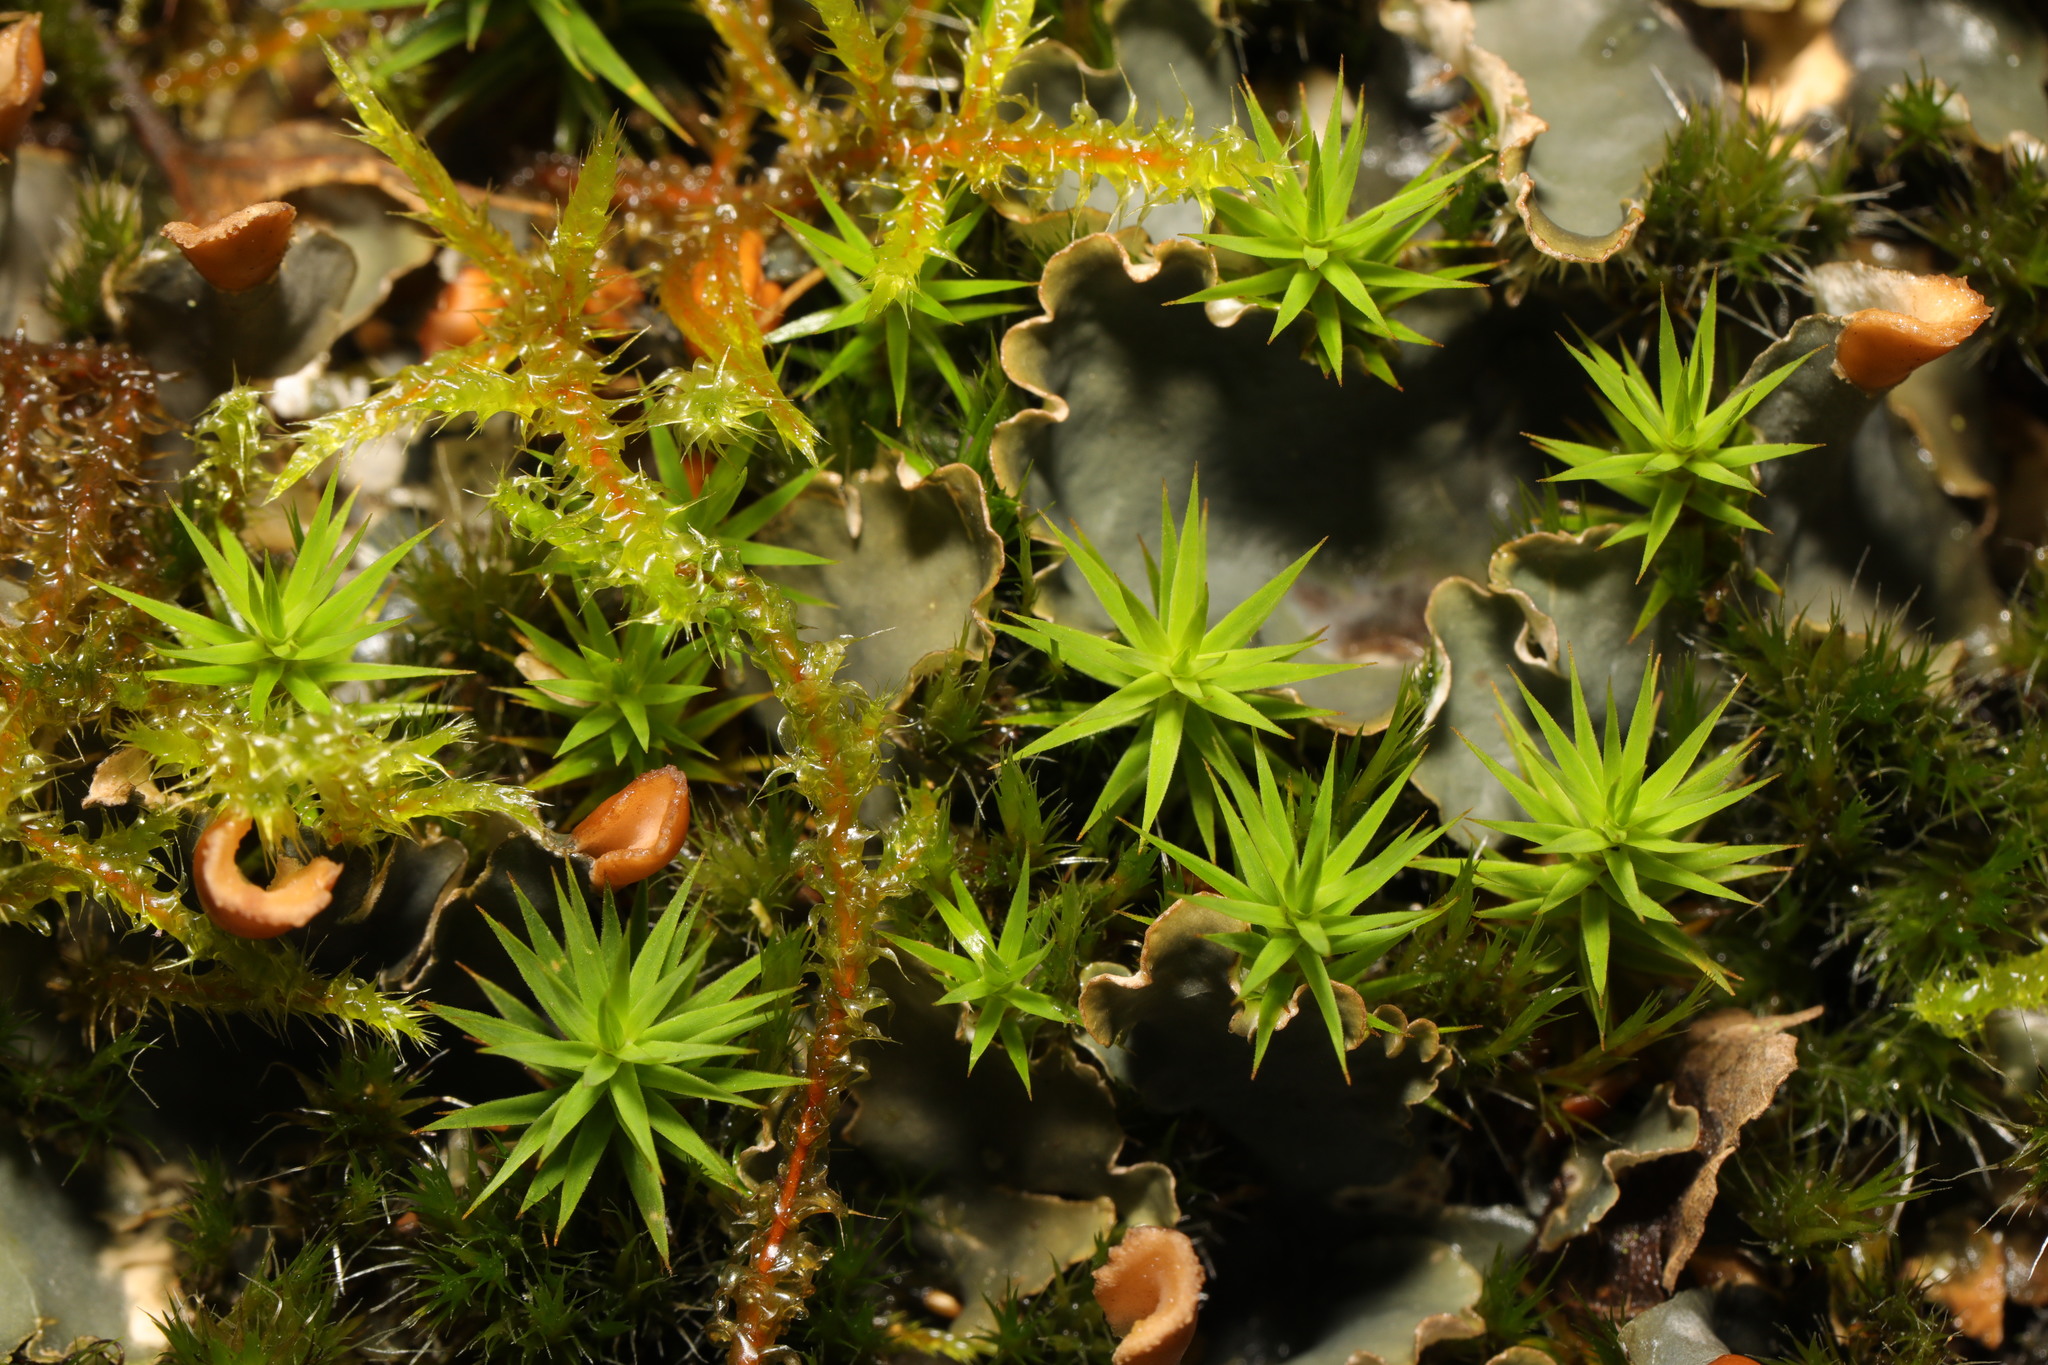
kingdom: Plantae
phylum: Bryophyta
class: Polytrichopsida
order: Polytrichales
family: Polytrichaceae
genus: Polytrichum
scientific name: Polytrichum formosum
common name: Bank haircap moss
